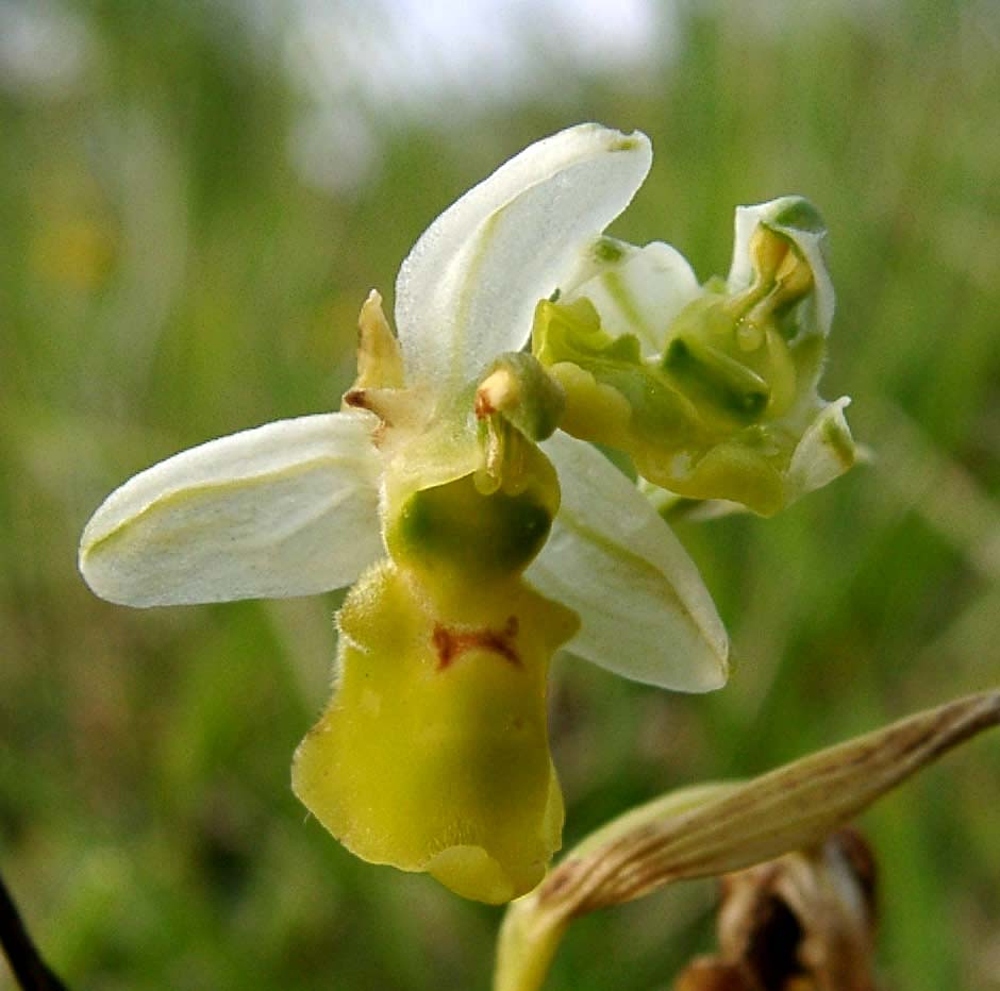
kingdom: Plantae
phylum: Tracheophyta
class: Liliopsida
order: Asparagales
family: Orchidaceae
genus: Ophrys
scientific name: Ophrys holosericea
